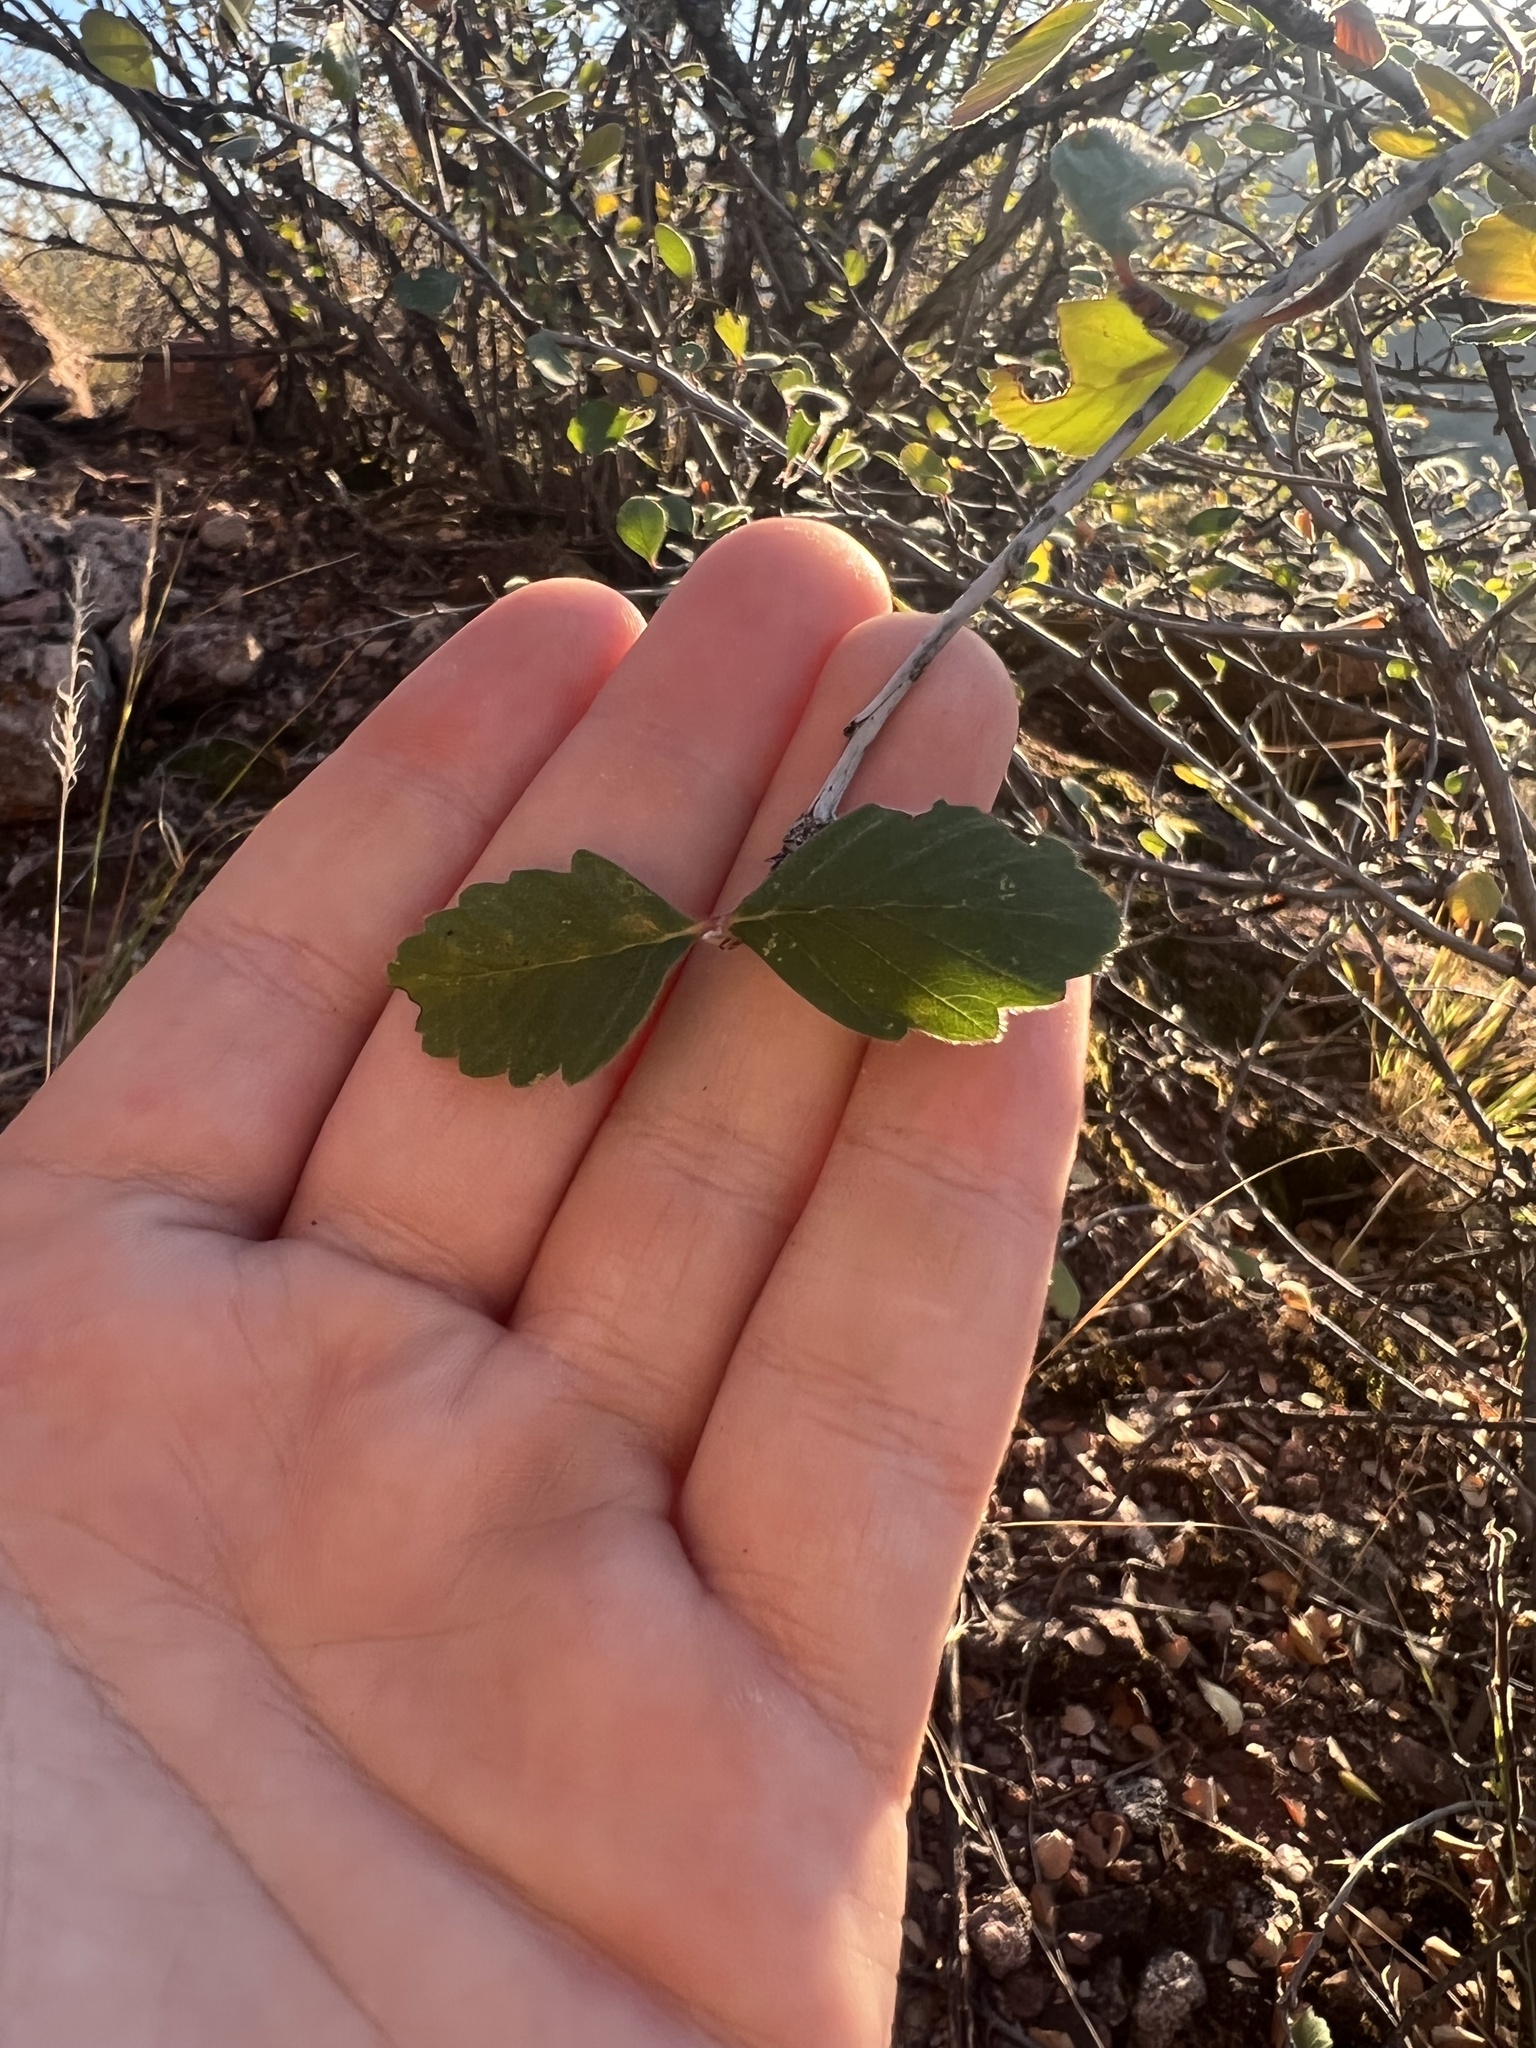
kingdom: Plantae
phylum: Tracheophyta
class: Magnoliopsida
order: Rosales
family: Rosaceae
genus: Cercocarpus
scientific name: Cercocarpus montanus
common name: Alder-leaf cercocarpus
